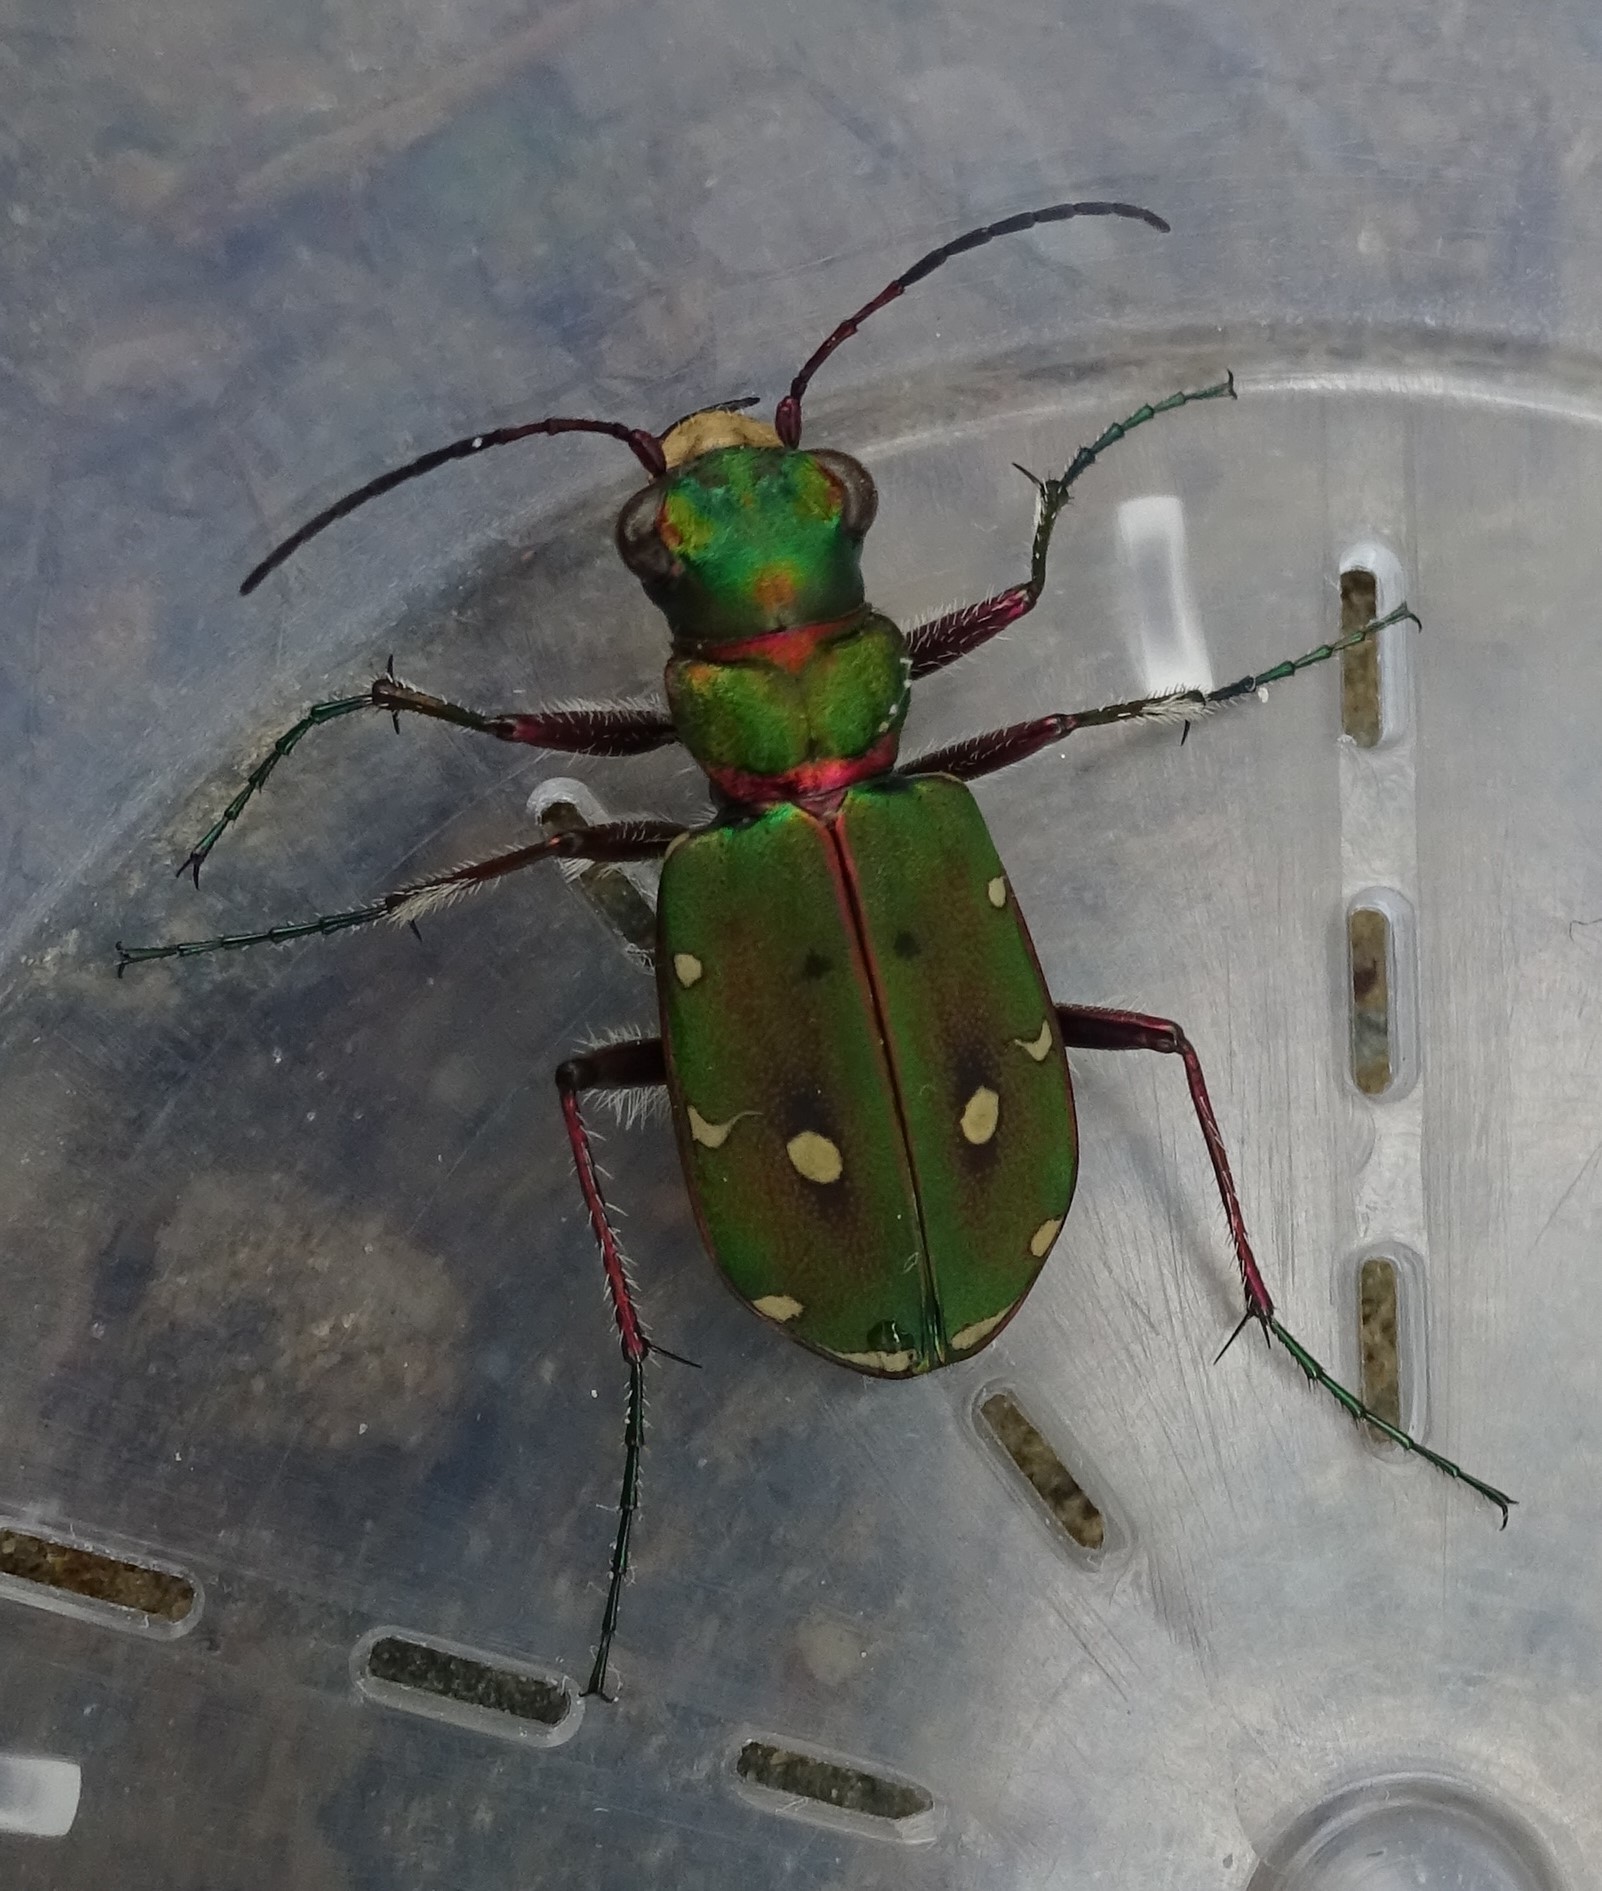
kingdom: Animalia
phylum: Arthropoda
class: Insecta
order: Coleoptera
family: Carabidae
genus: Cicindela
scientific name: Cicindela campestris
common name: Common tiger beetle
